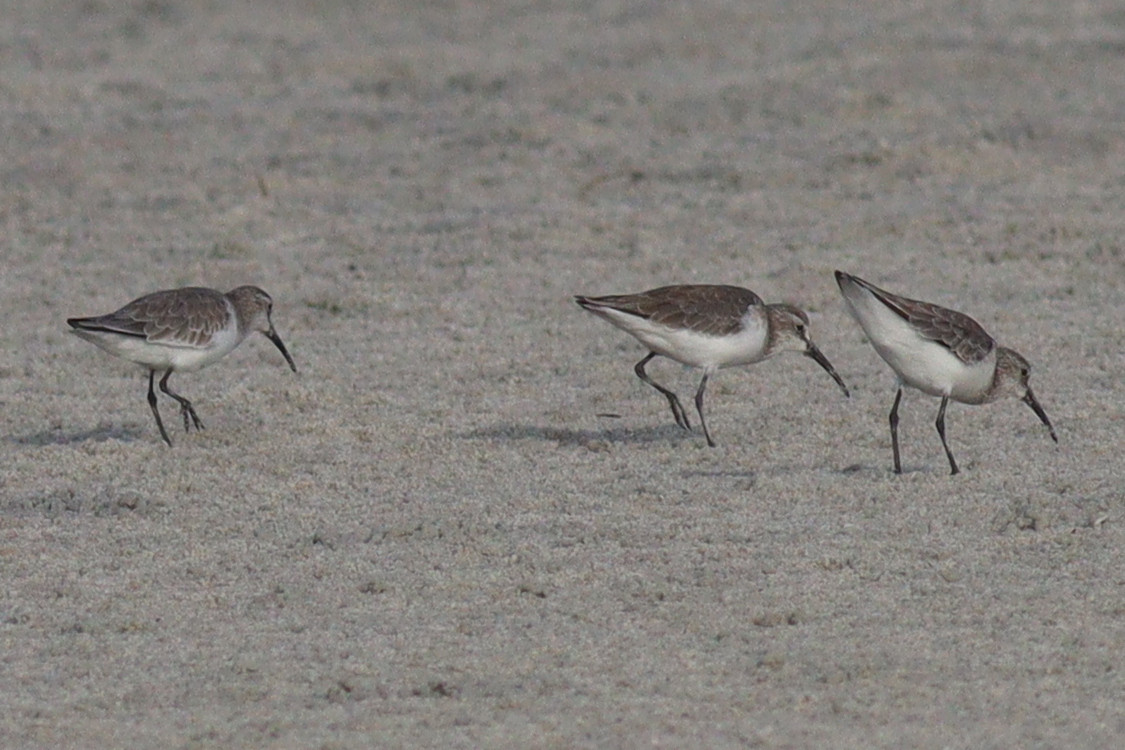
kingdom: Animalia
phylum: Chordata
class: Aves
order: Charadriiformes
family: Scolopacidae
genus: Calidris
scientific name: Calidris ferruginea
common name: Curlew sandpiper
